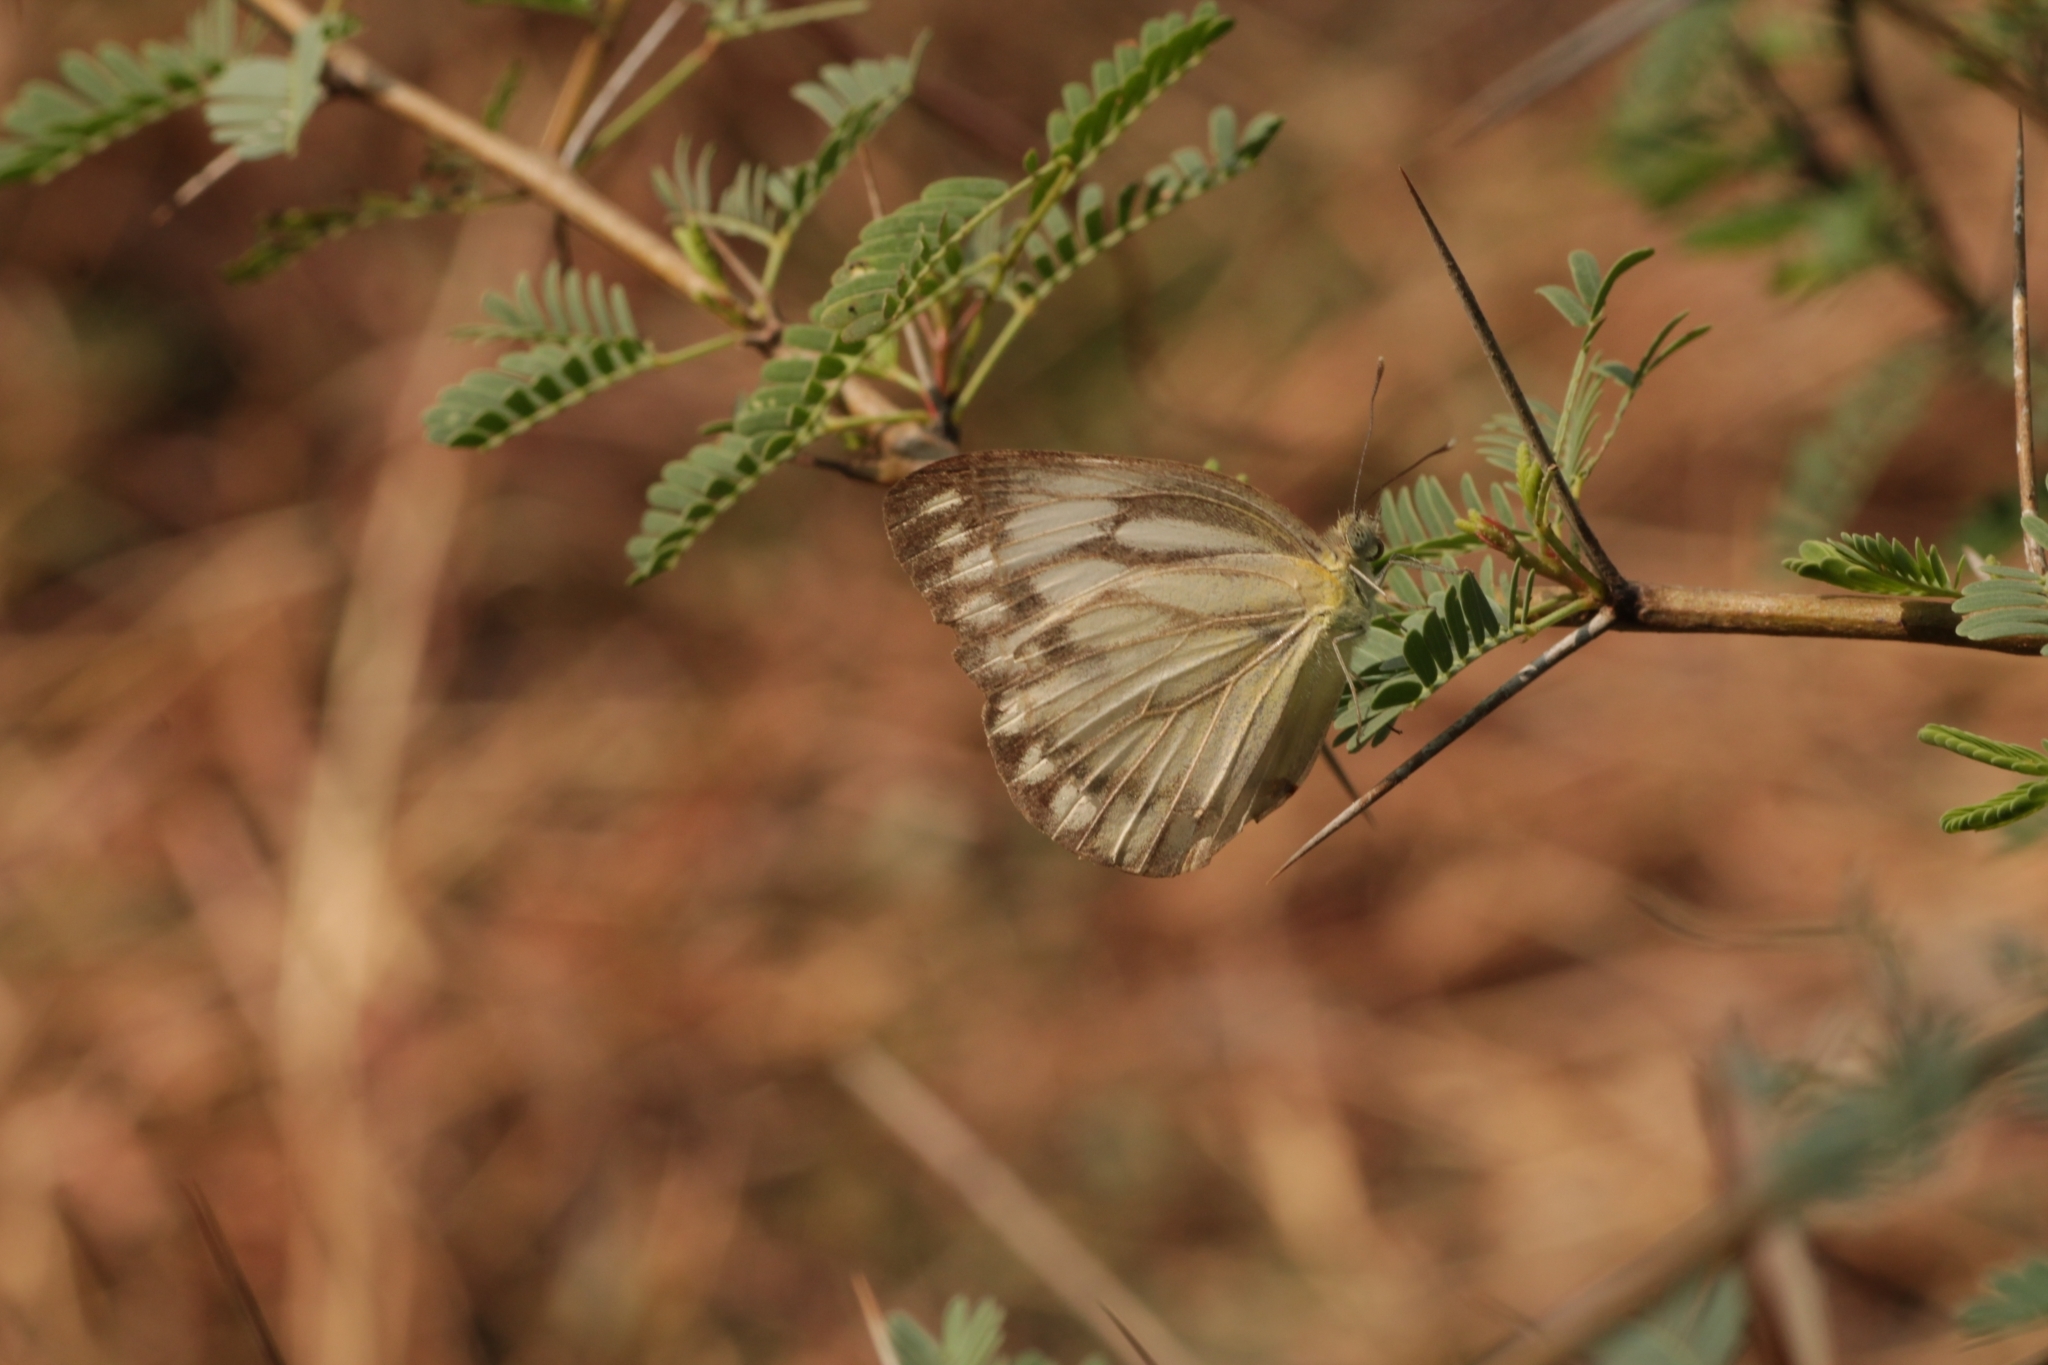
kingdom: Animalia
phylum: Arthropoda
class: Insecta
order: Lepidoptera
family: Pieridae
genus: Cepora
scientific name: Cepora nerissa
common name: Common gull
